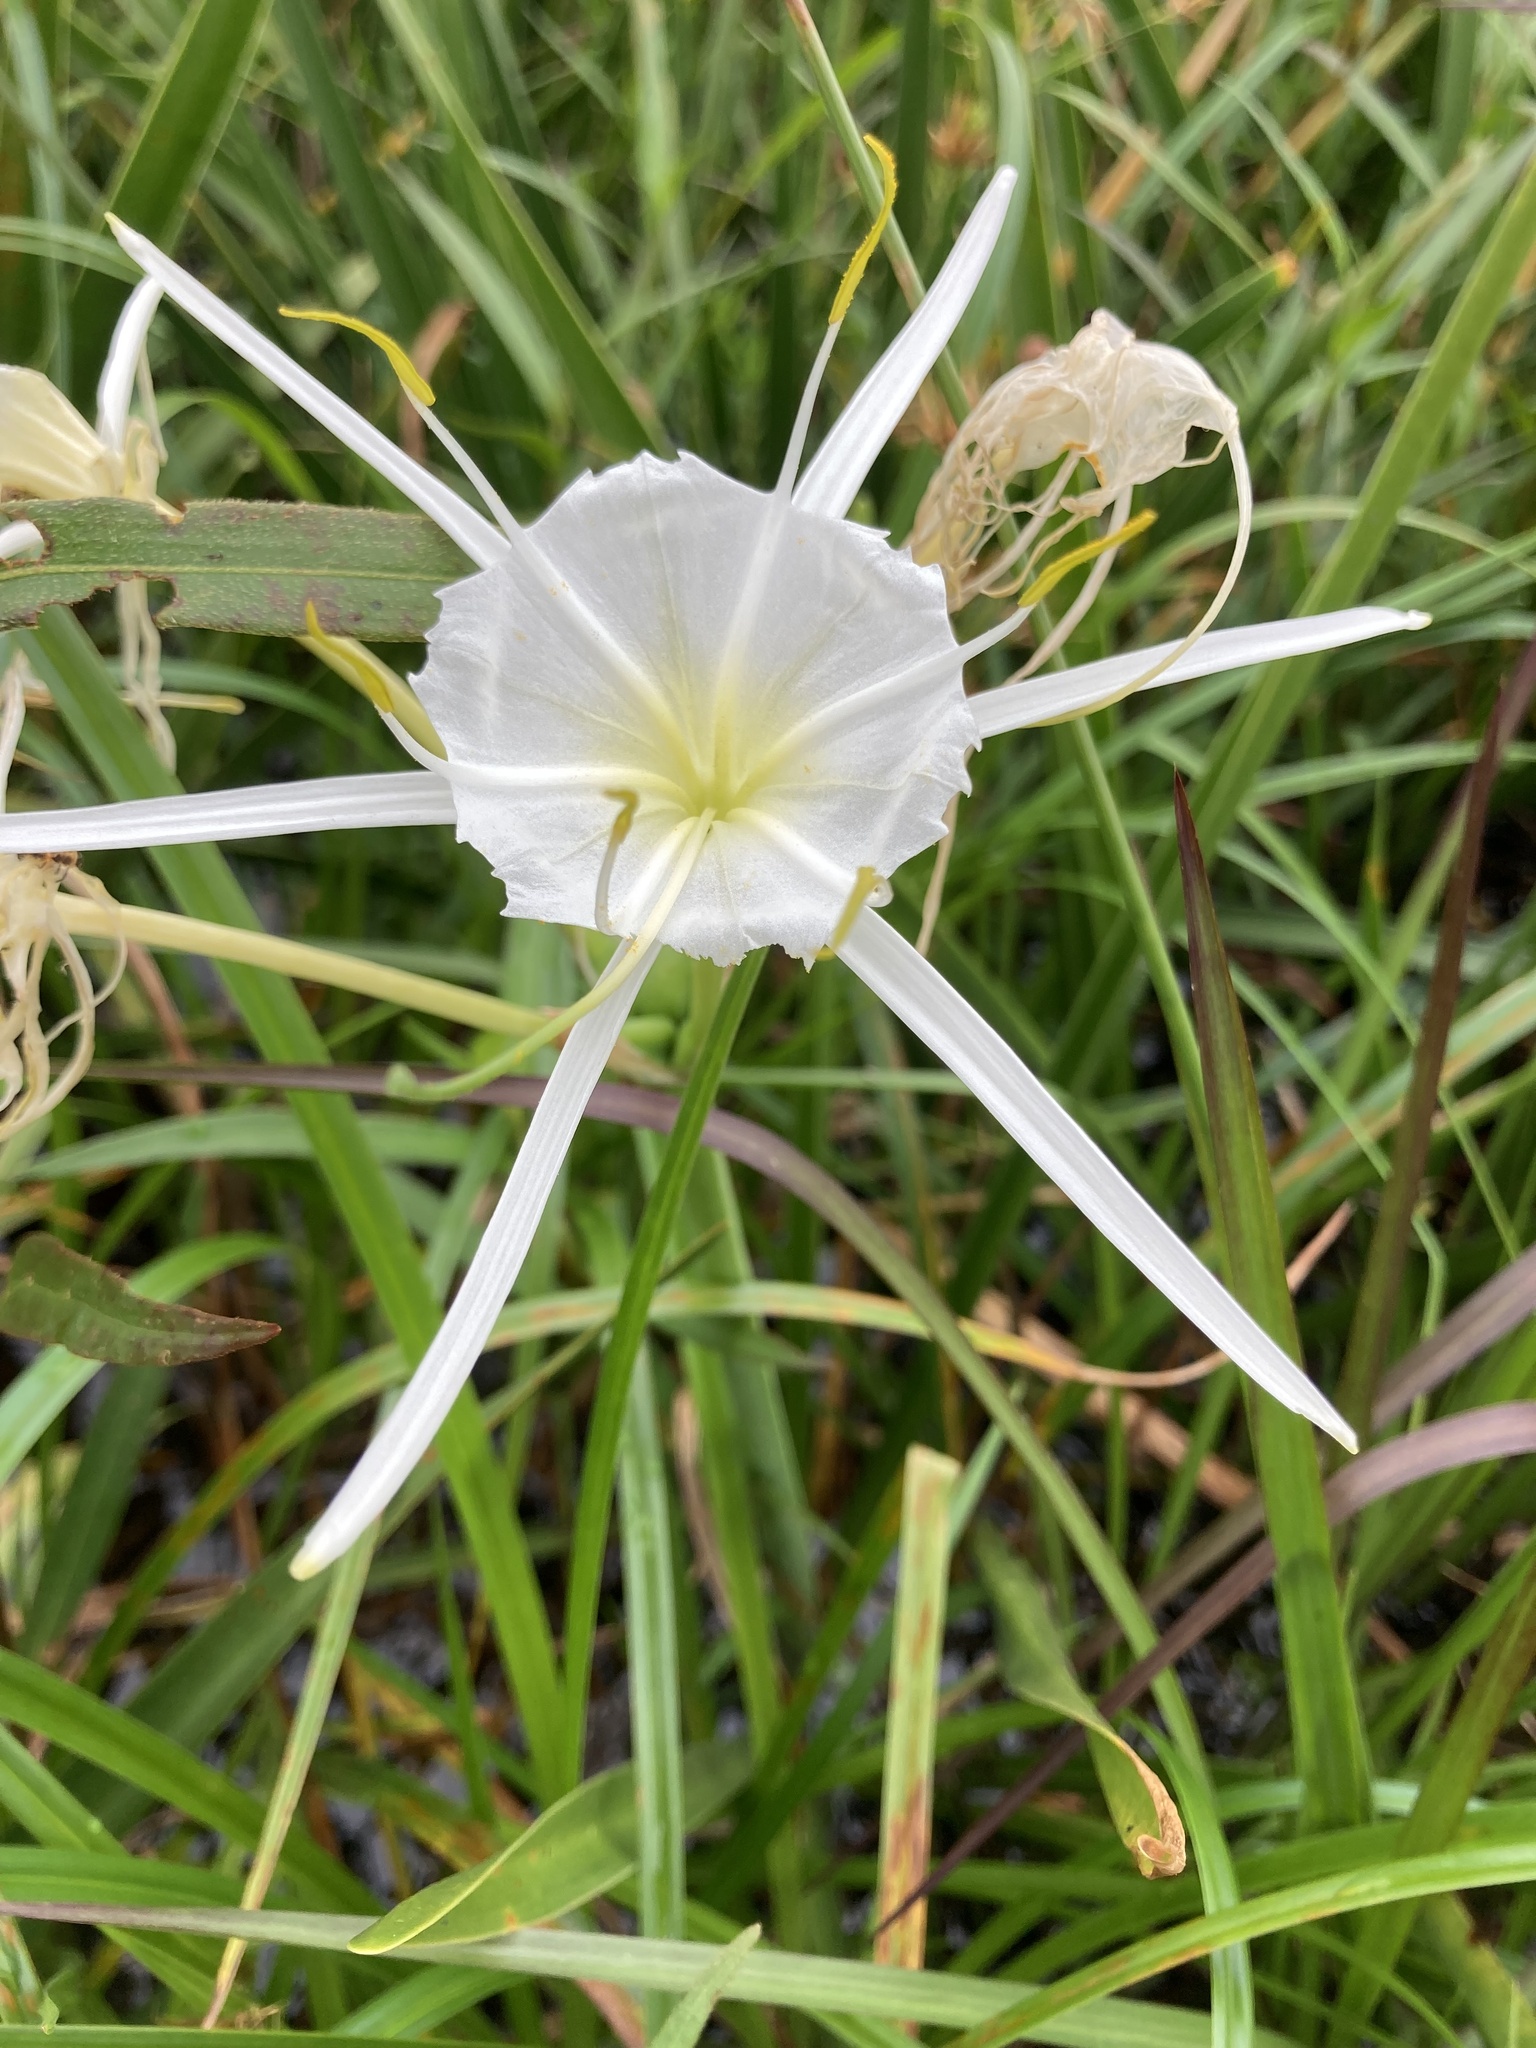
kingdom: Plantae
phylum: Tracheophyta
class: Liliopsida
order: Asparagales
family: Amaryllidaceae
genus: Hymenocallis
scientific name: Hymenocallis liriosme
